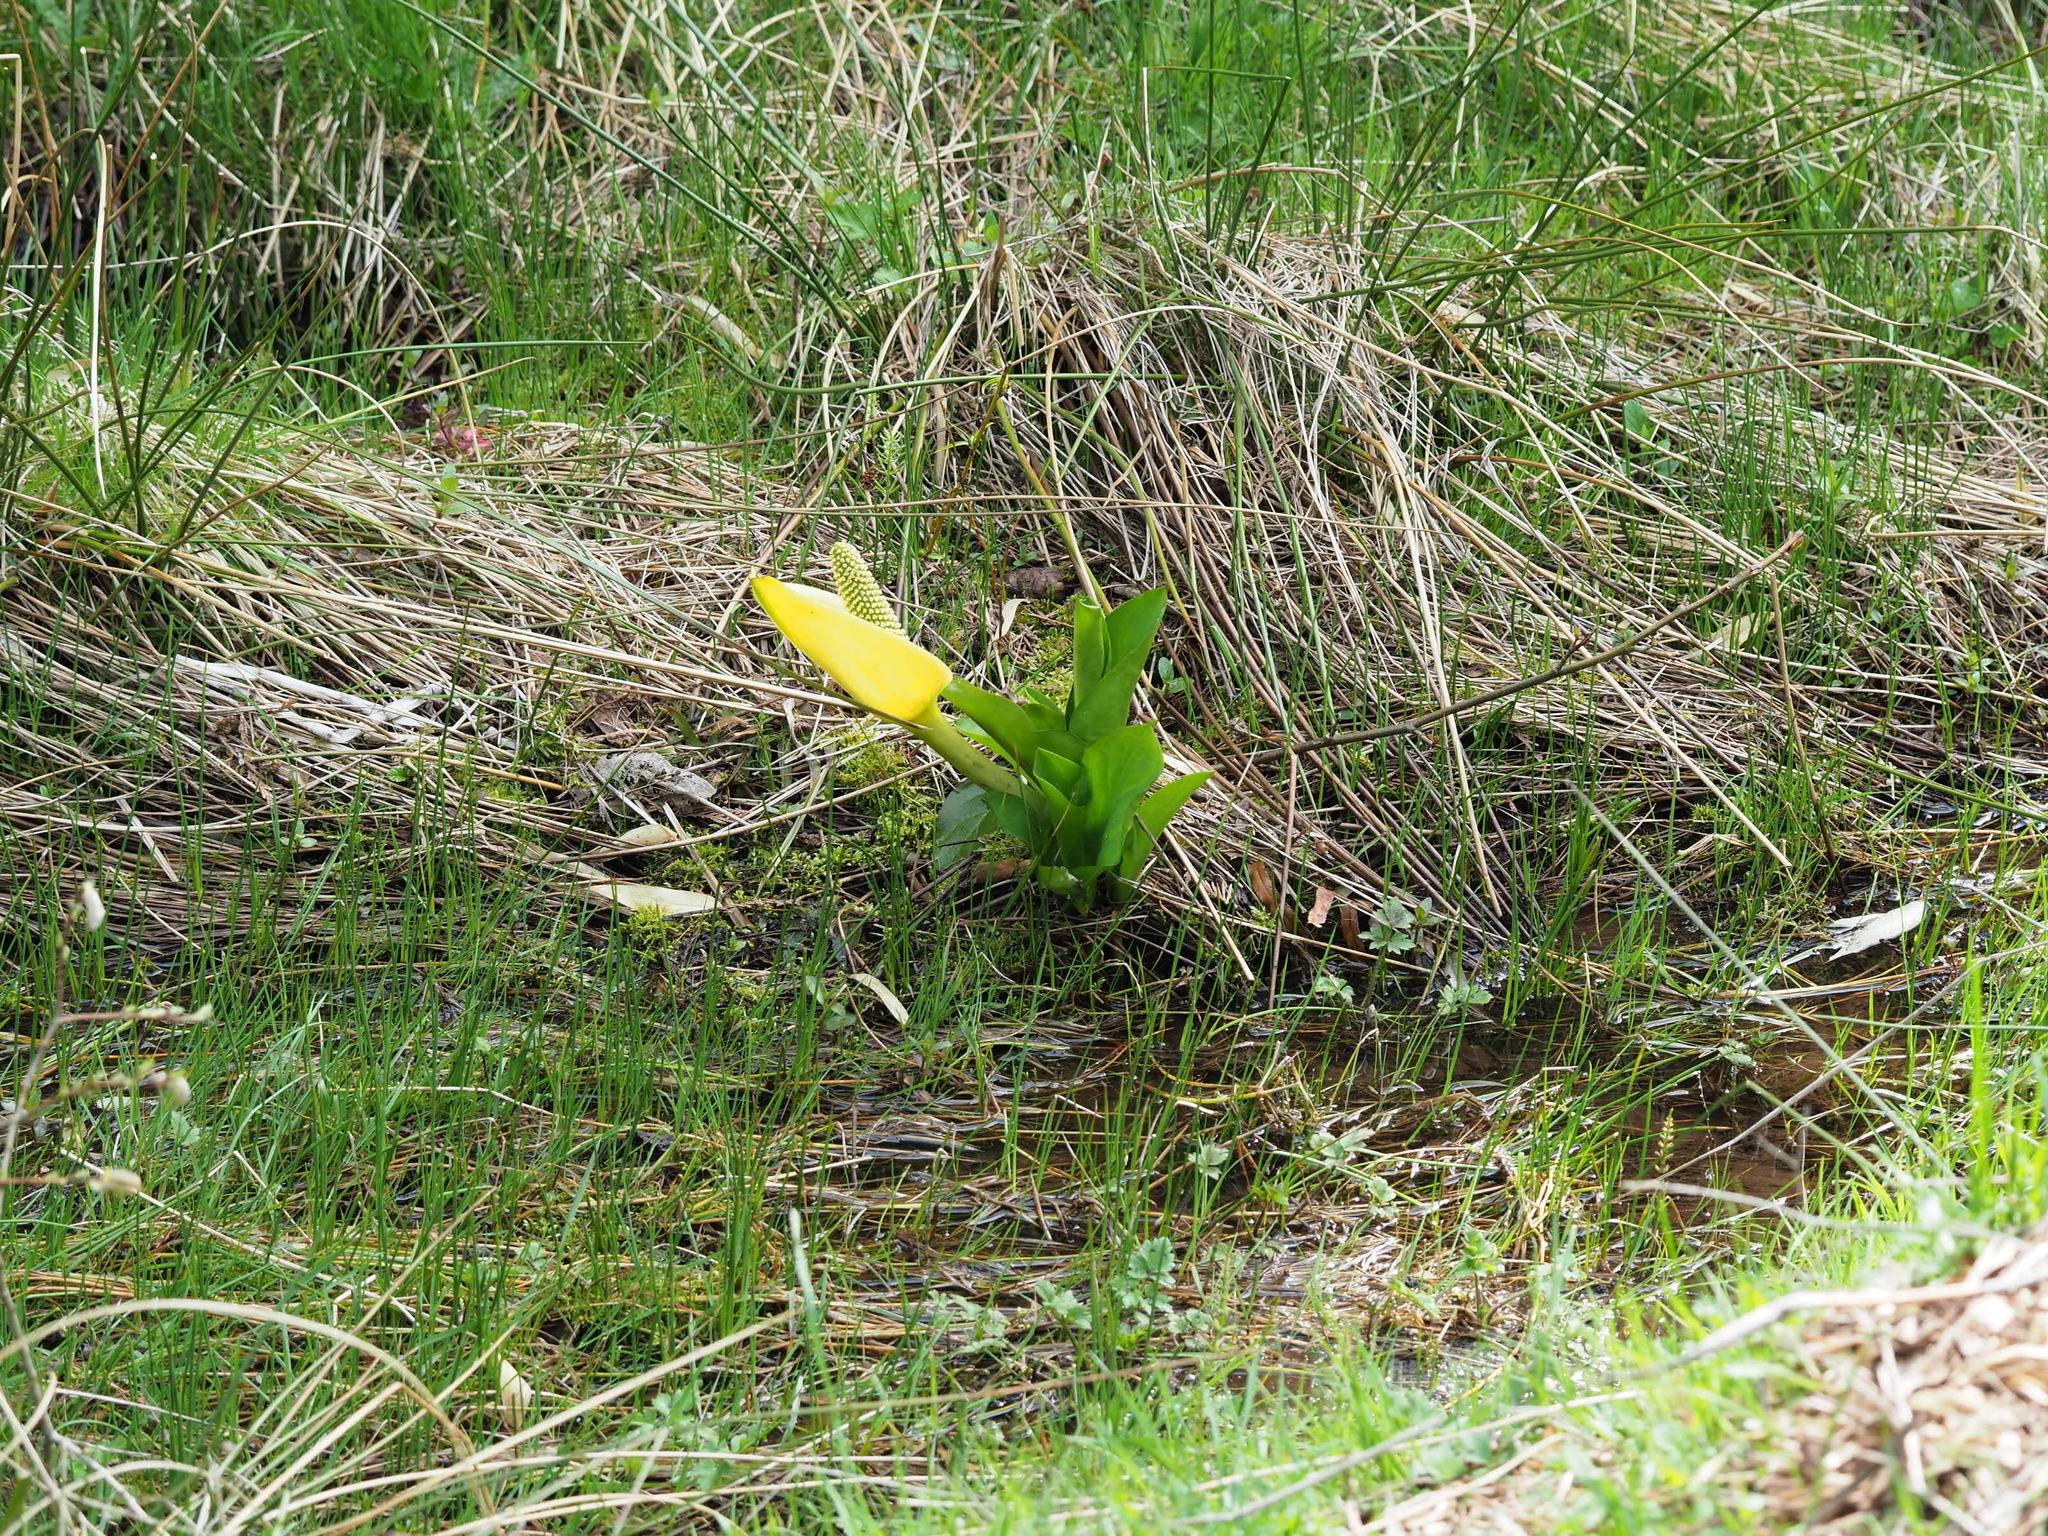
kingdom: Plantae
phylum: Tracheophyta
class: Liliopsida
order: Alismatales
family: Araceae
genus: Lysichiton
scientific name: Lysichiton americanus
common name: American skunk cabbage
